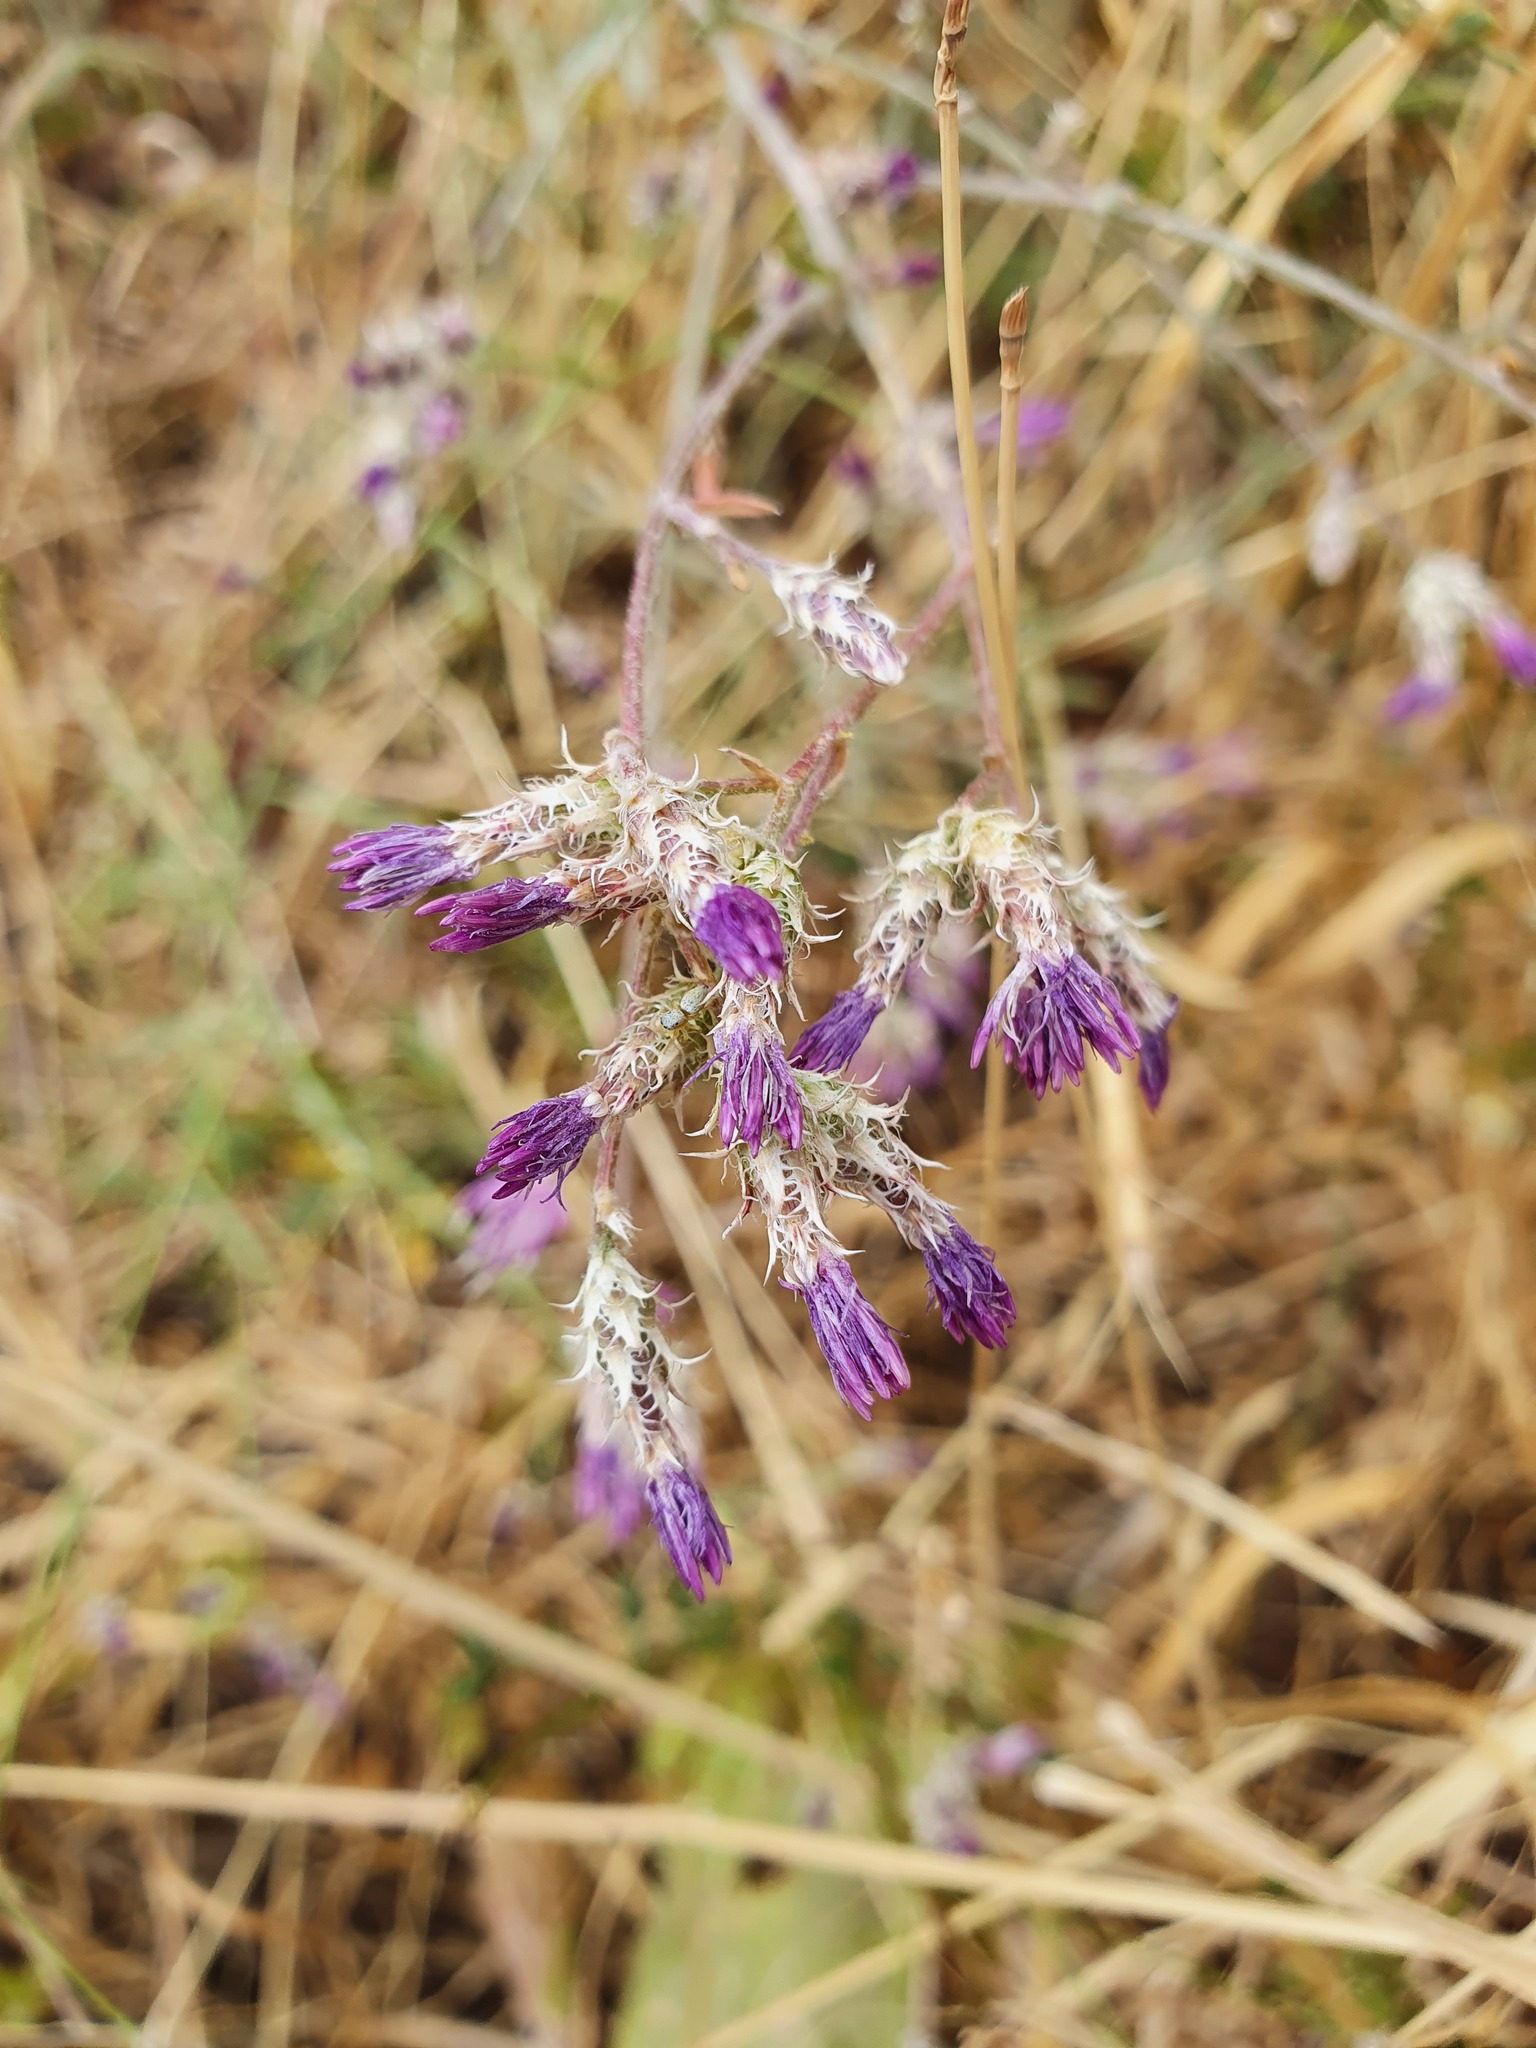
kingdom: Plantae
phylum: Tracheophyta
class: Magnoliopsida
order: Asterales
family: Asteraceae
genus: Centaurea
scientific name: Centaurea aggregata
